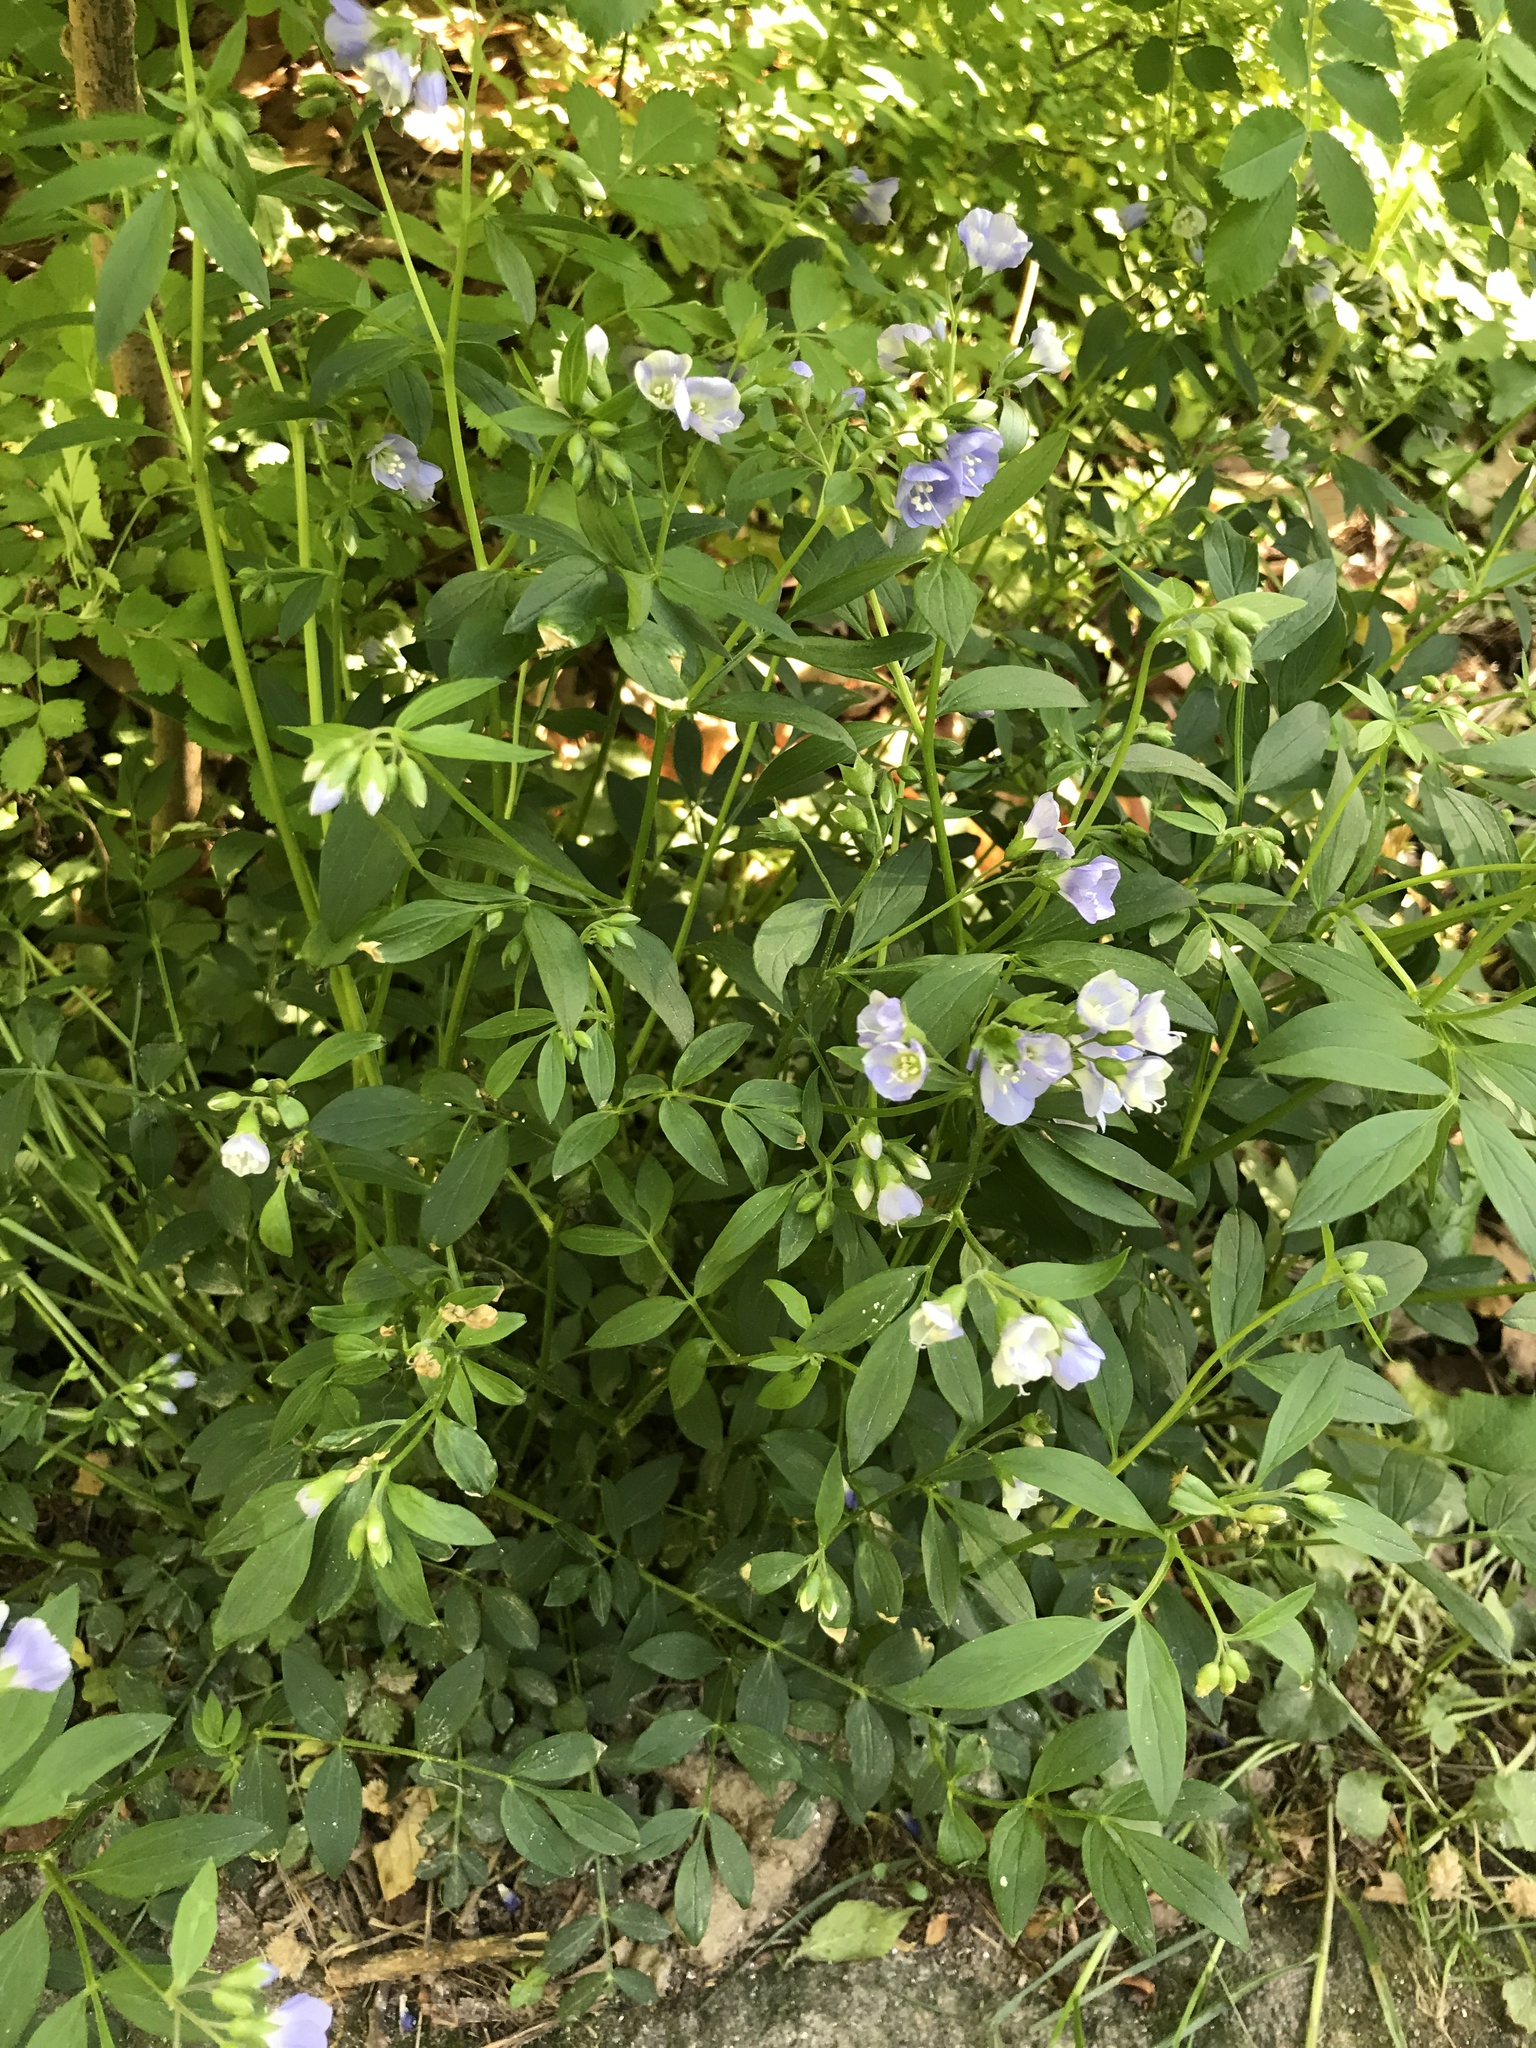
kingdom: Plantae
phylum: Tracheophyta
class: Magnoliopsida
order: Ericales
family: Polemoniaceae
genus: Polemonium
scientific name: Polemonium reptans
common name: Creeping jacob's-ladder
